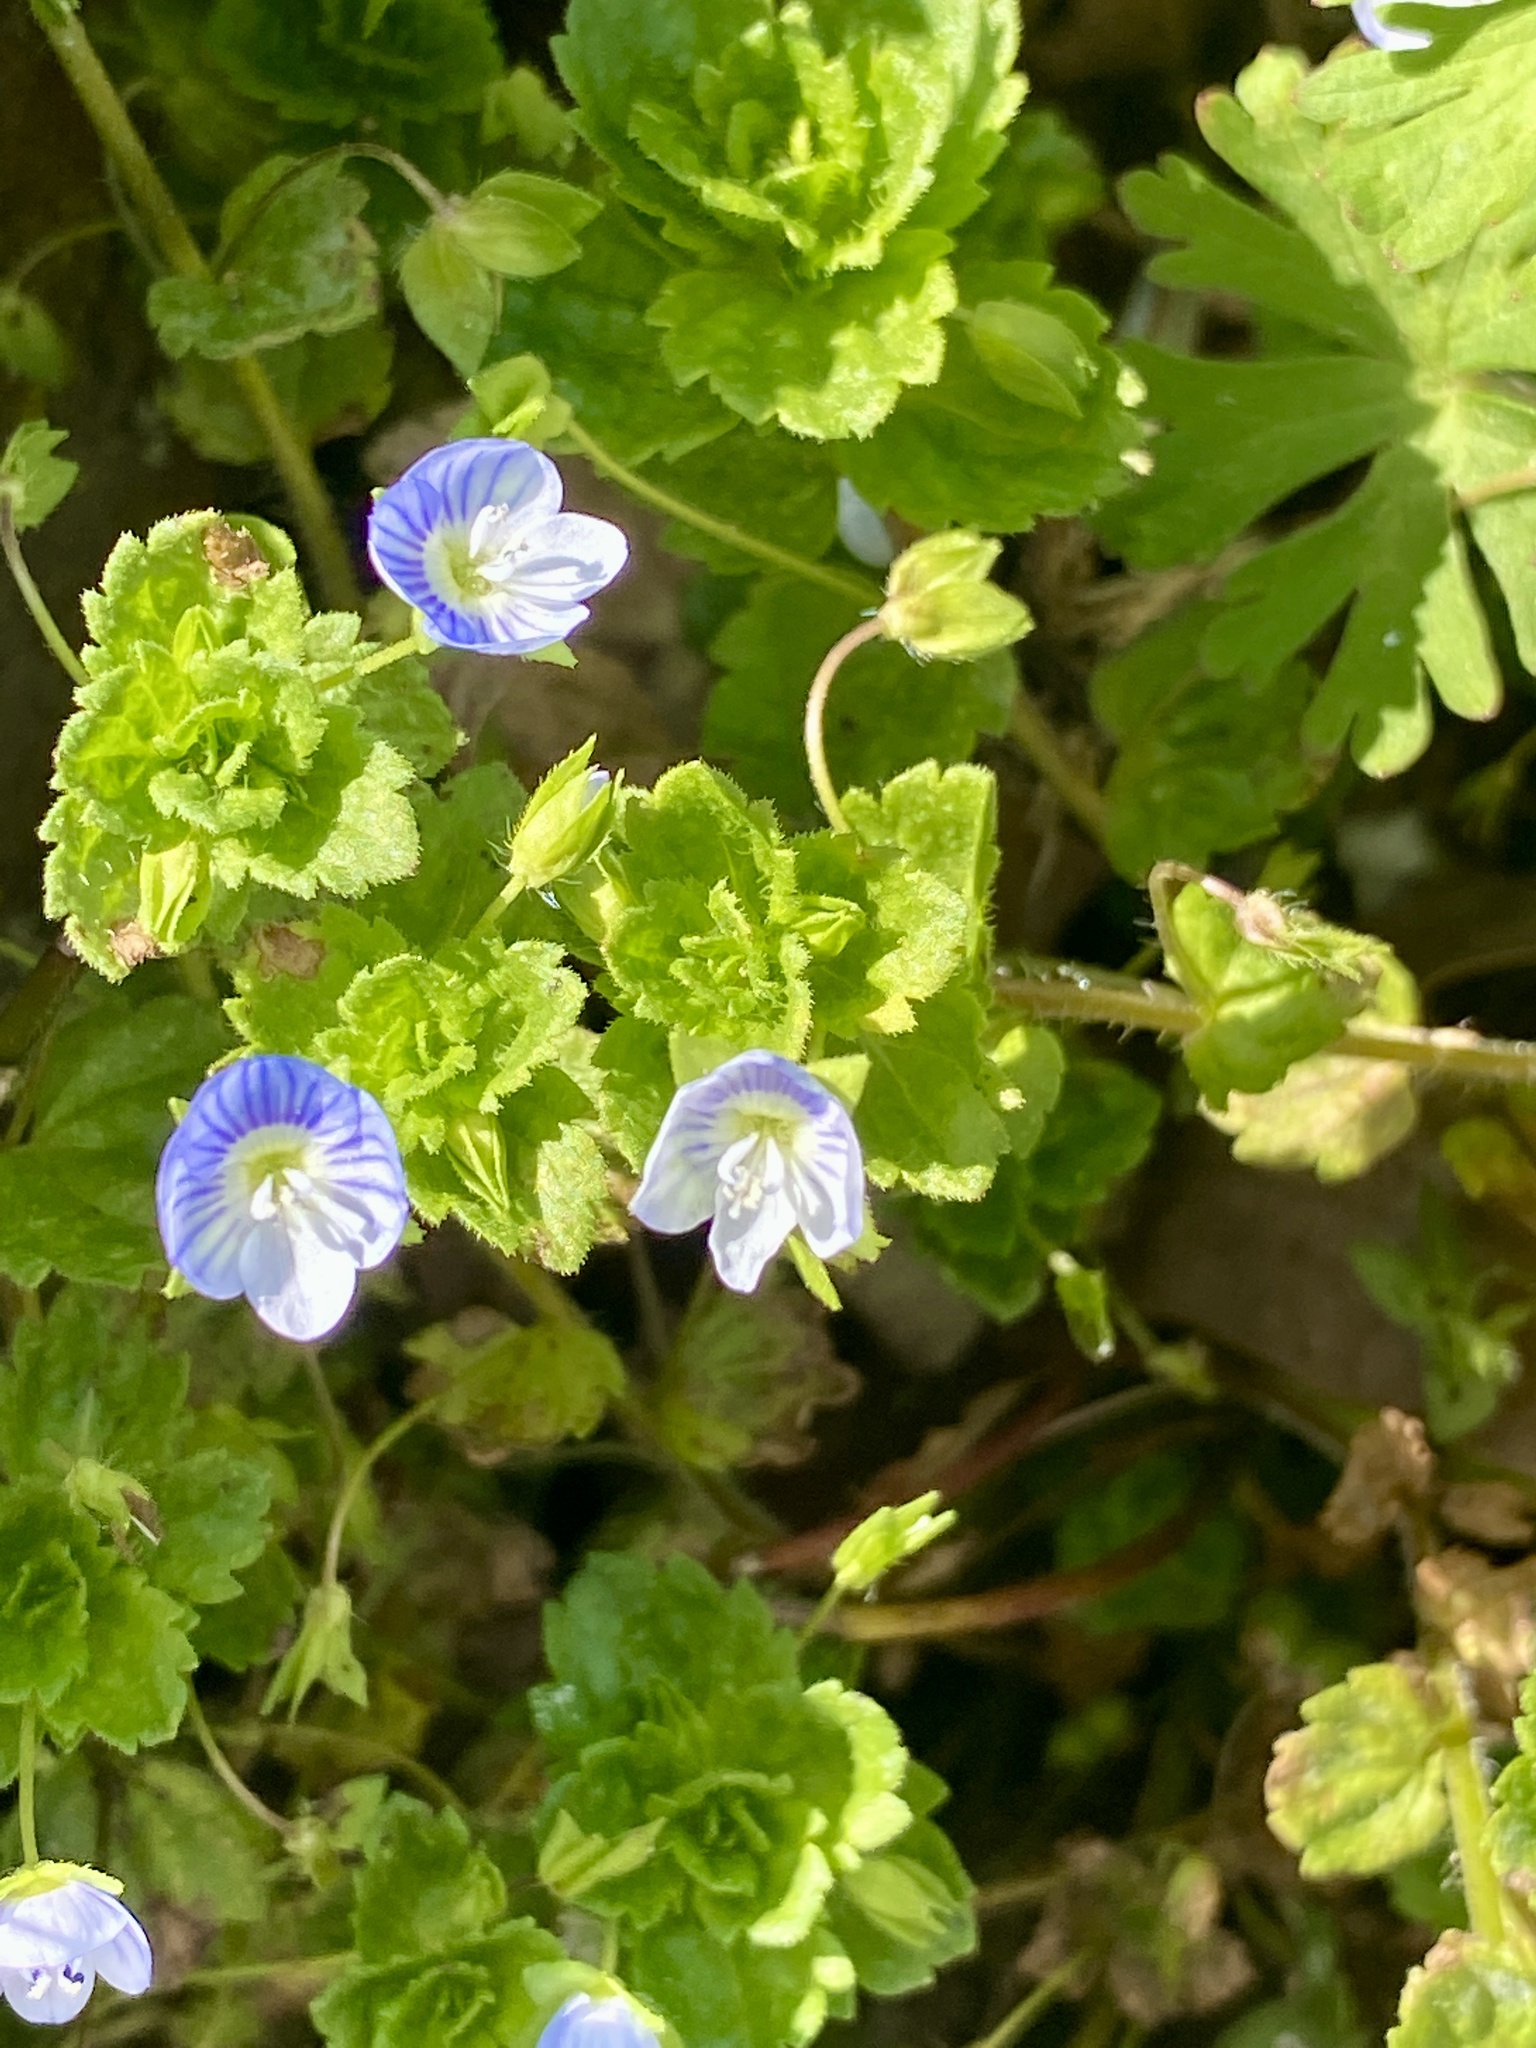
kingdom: Plantae
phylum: Tracheophyta
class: Magnoliopsida
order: Lamiales
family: Plantaginaceae
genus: Veronica
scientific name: Veronica persica
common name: Common field-speedwell
